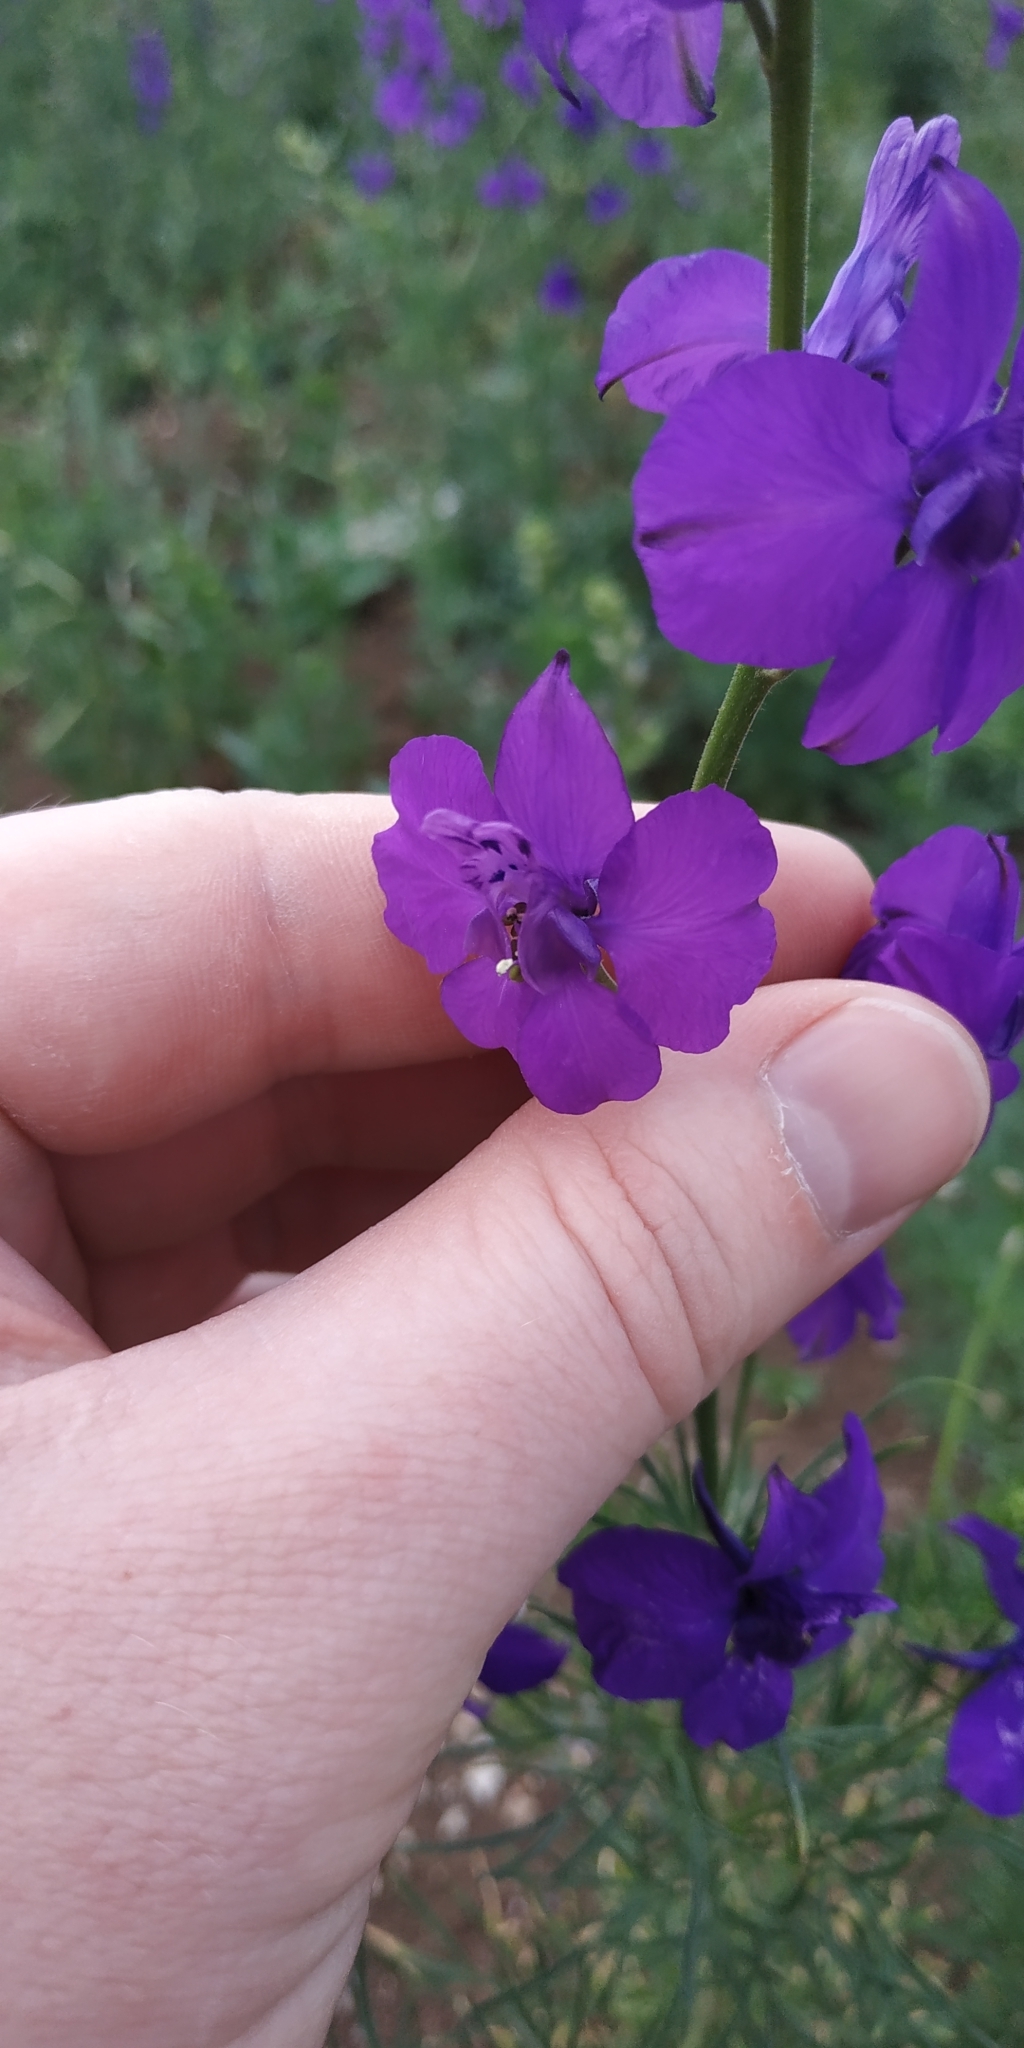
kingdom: Plantae
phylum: Tracheophyta
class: Magnoliopsida
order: Ranunculales
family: Ranunculaceae
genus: Delphinium
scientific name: Delphinium ajacis
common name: Doubtful knight's-spur
